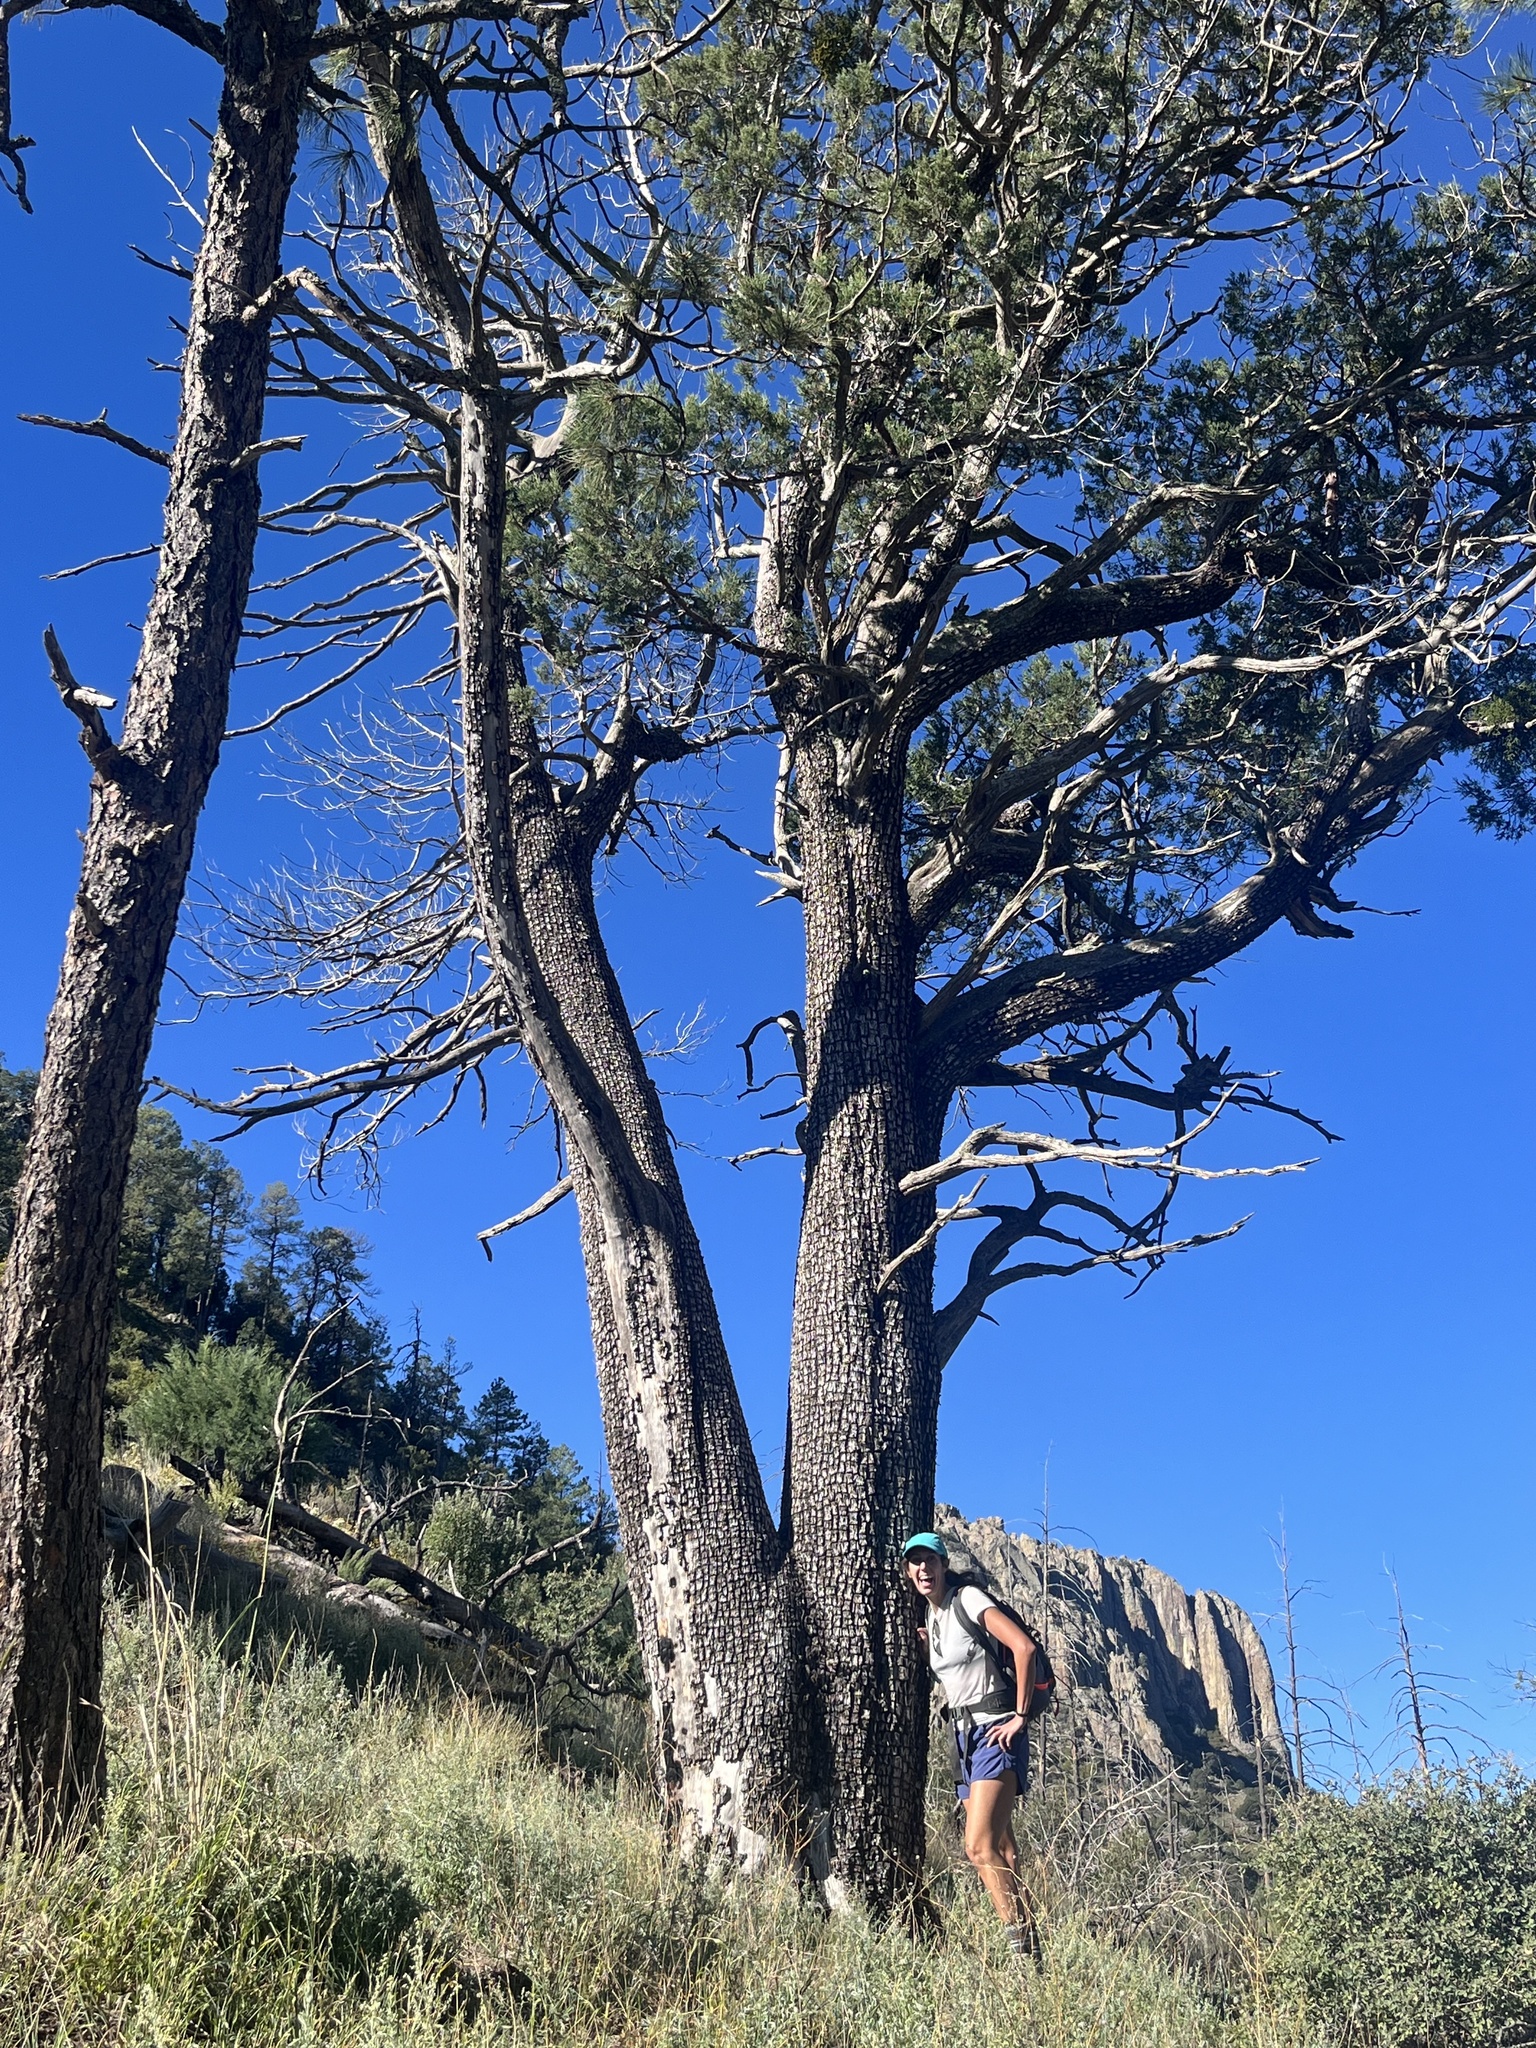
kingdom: Plantae
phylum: Tracheophyta
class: Pinopsida
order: Pinales
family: Cupressaceae
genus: Juniperus
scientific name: Juniperus deppeana
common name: Alligator juniper
